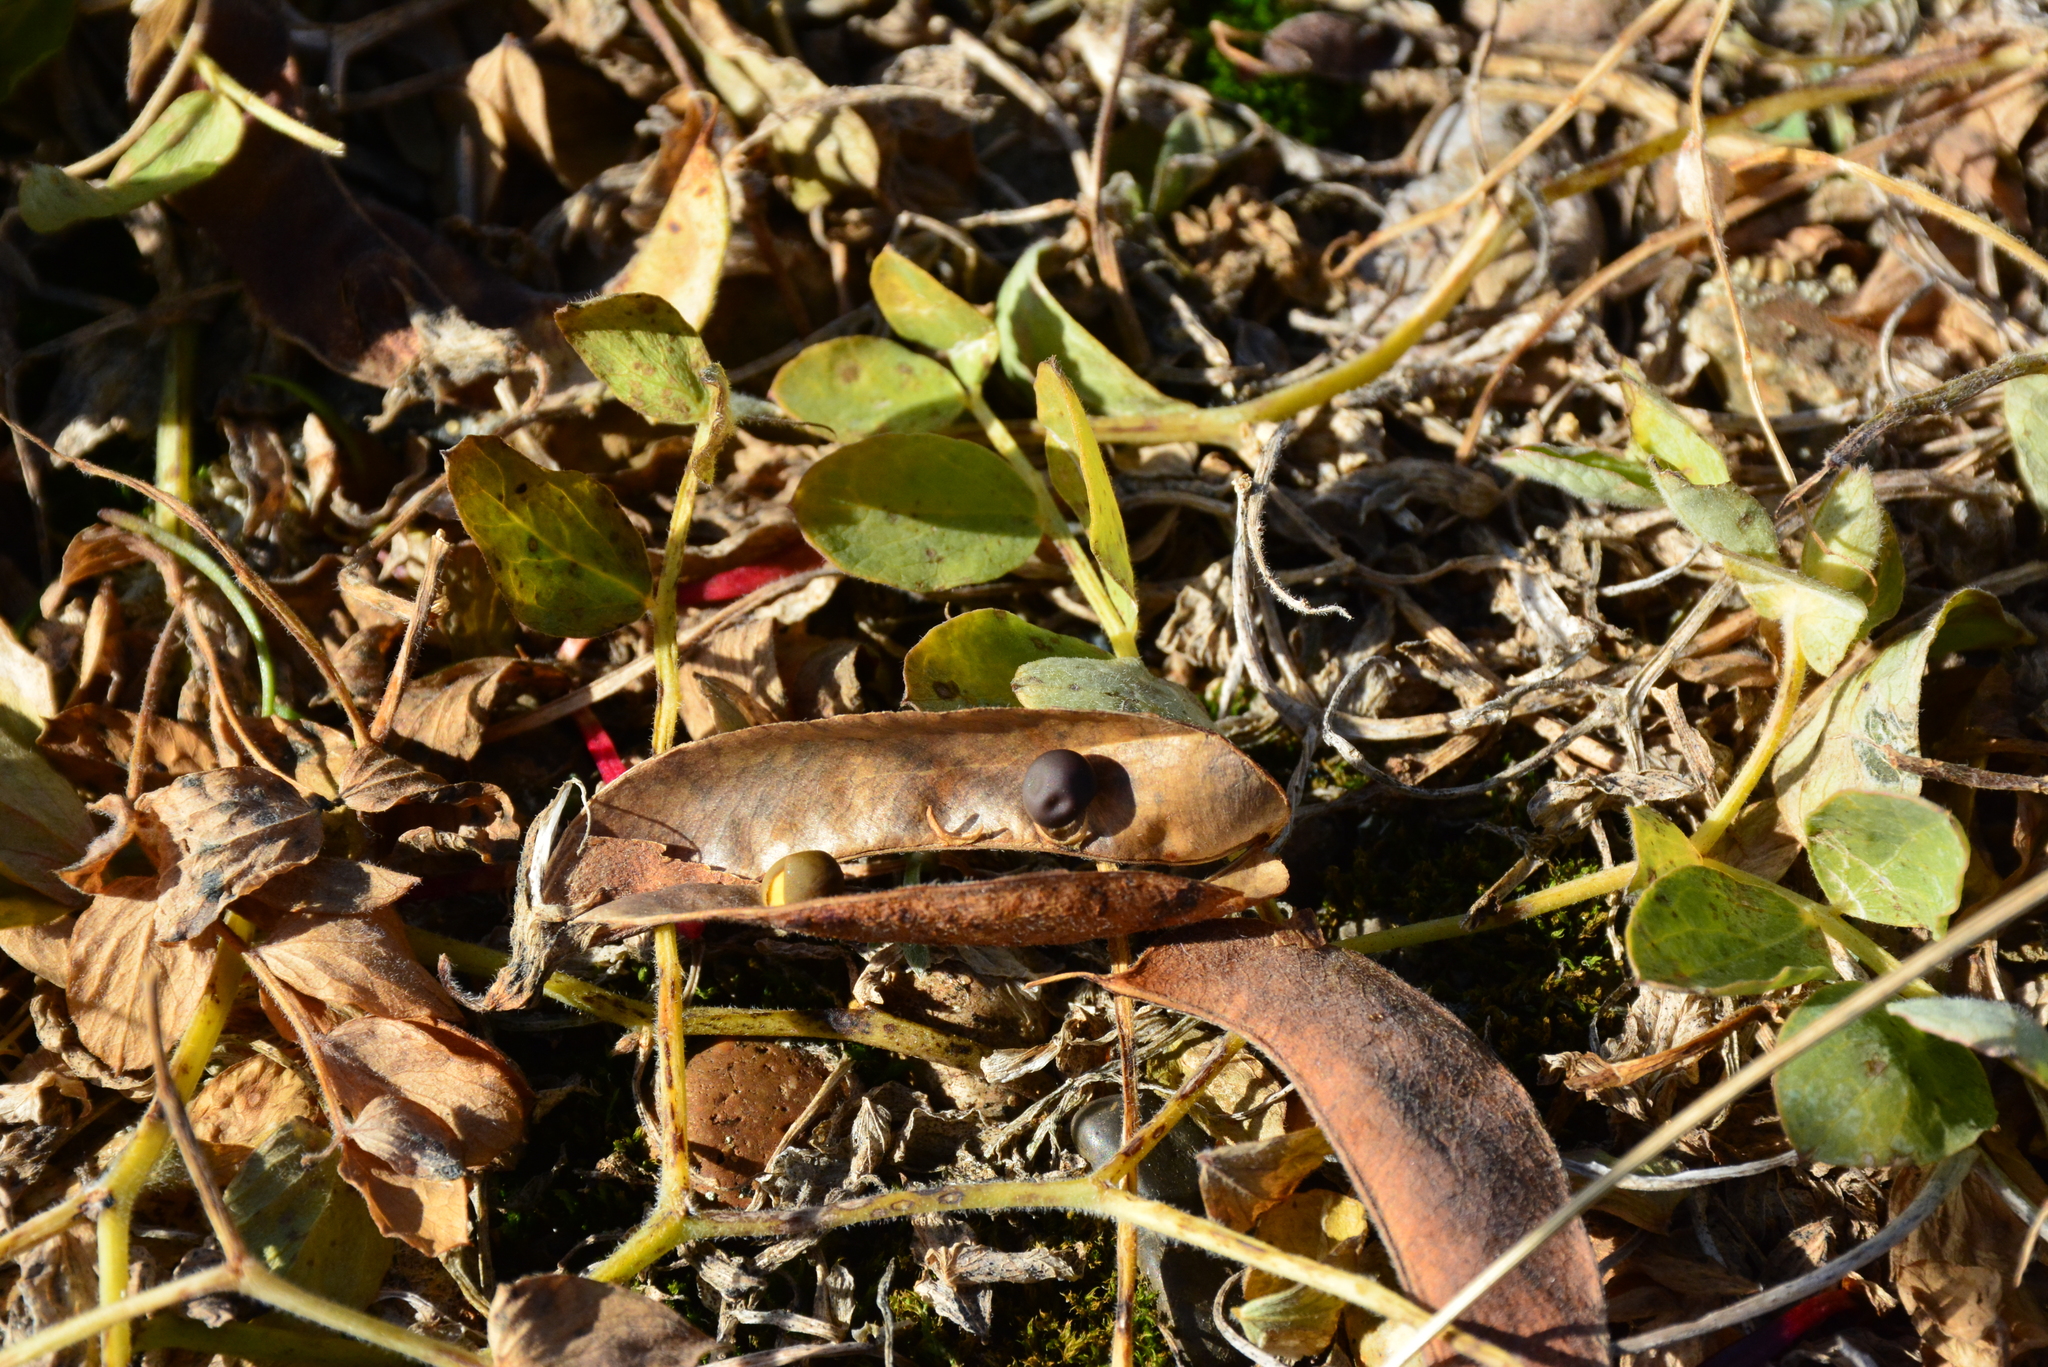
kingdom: Plantae
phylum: Tracheophyta
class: Magnoliopsida
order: Fabales
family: Fabaceae
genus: Lathyrus
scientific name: Lathyrus japonicus
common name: Sea pea
